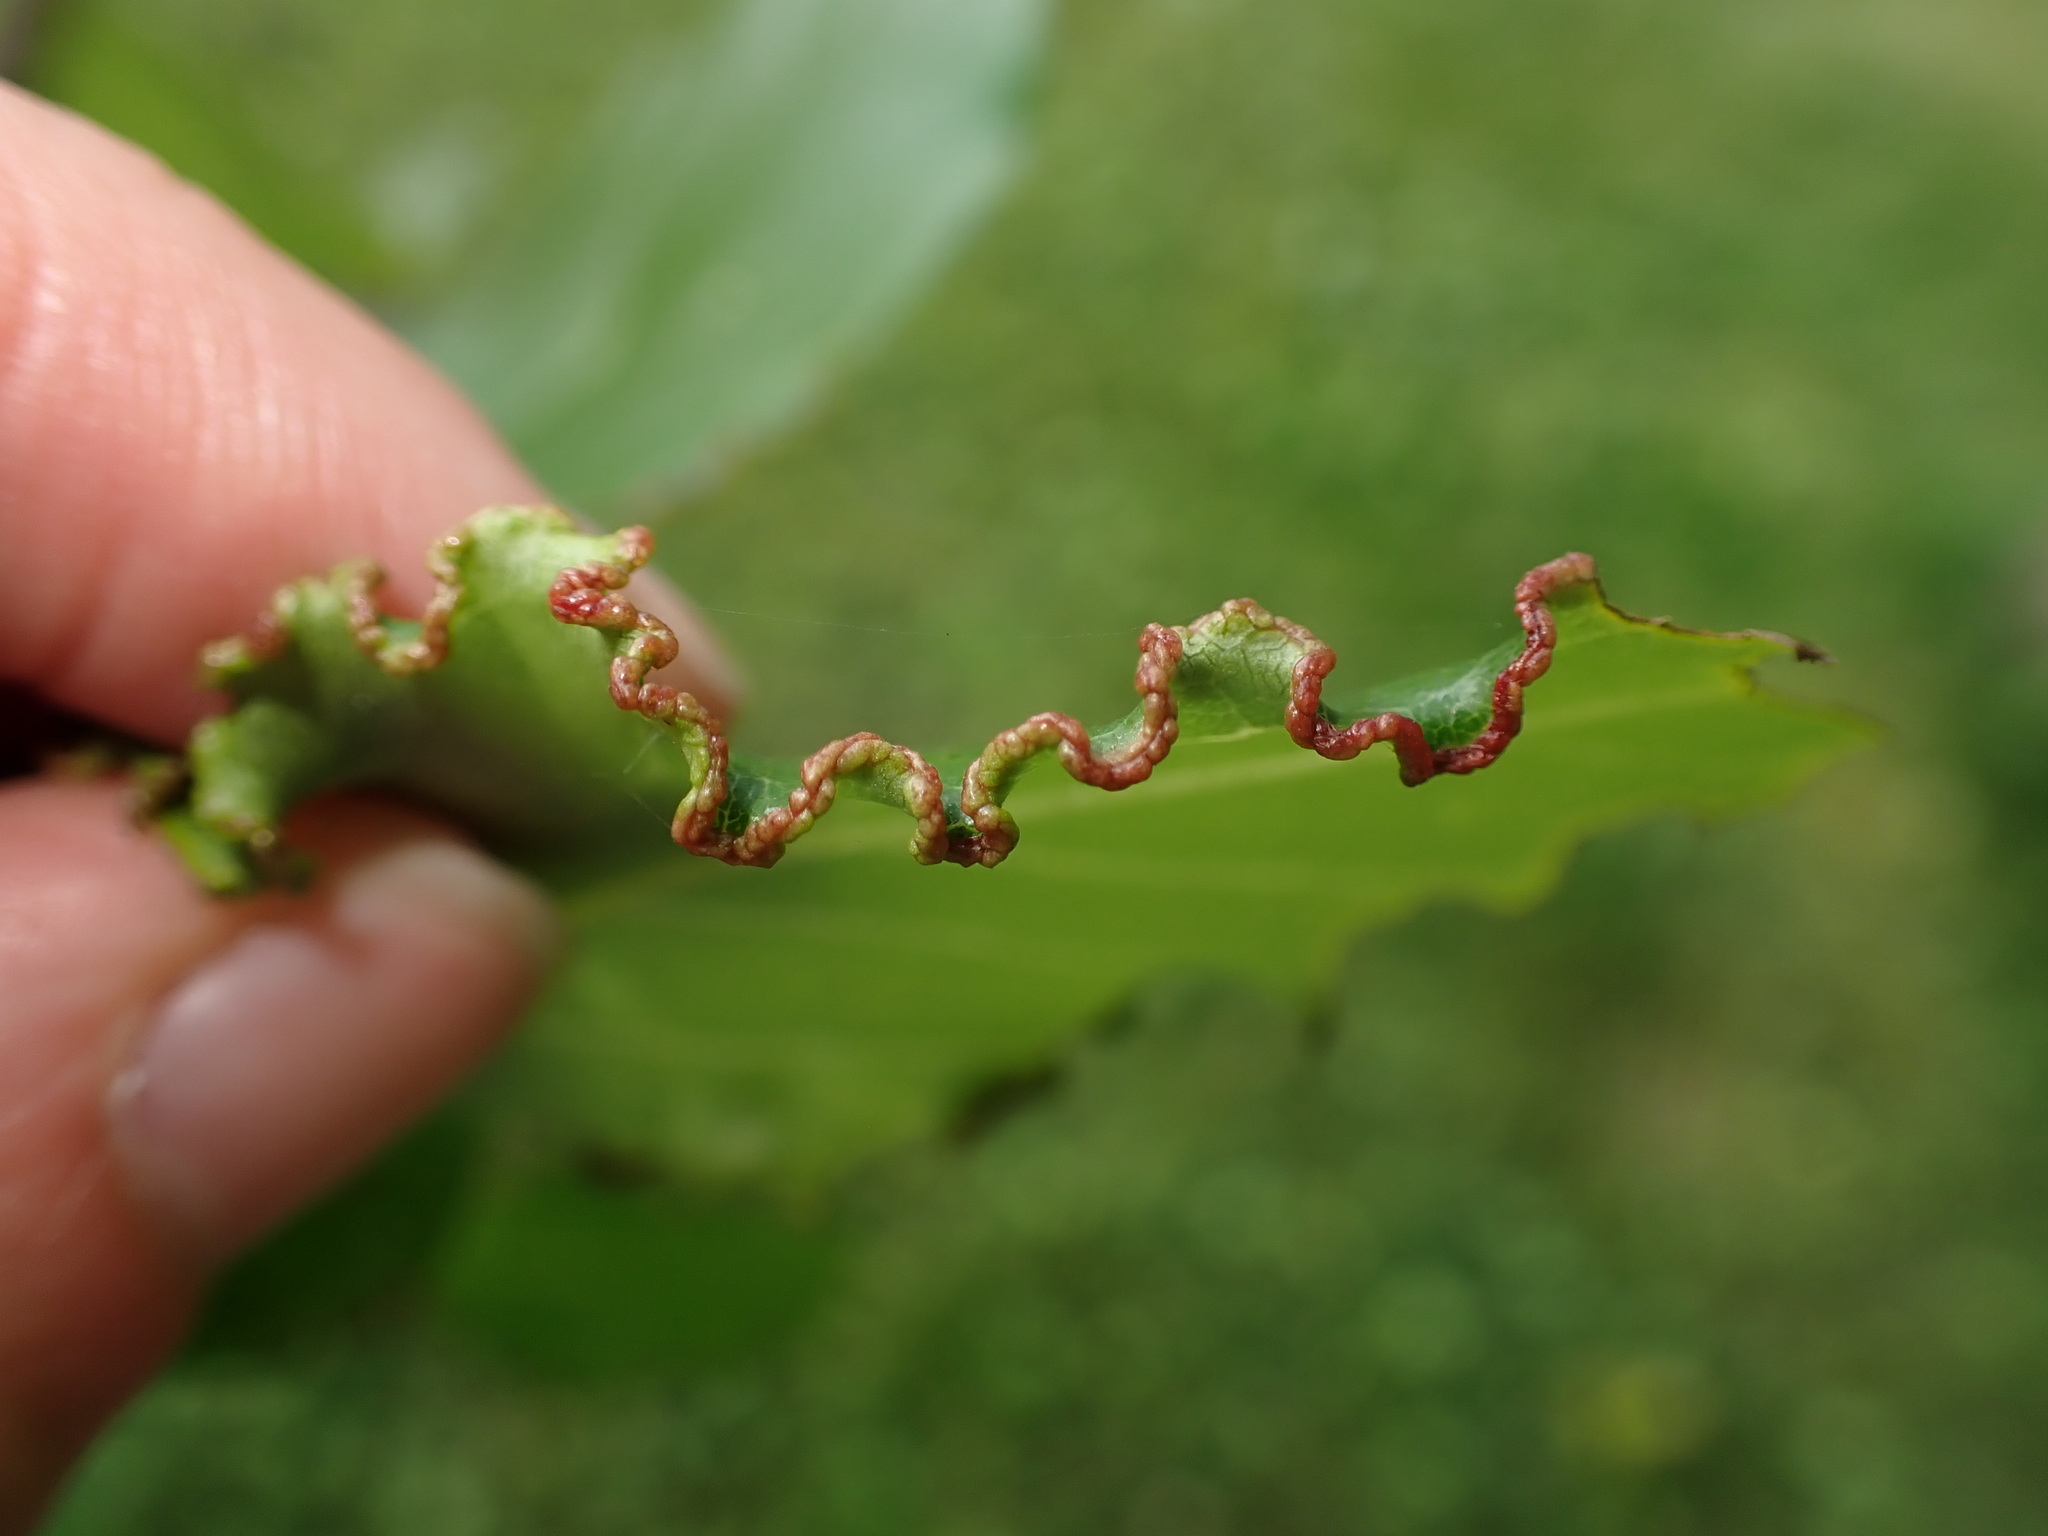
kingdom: Animalia
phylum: Arthropoda
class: Arachnida
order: Trombidiformes
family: Eriophyidae
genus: Aceria
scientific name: Aceria
